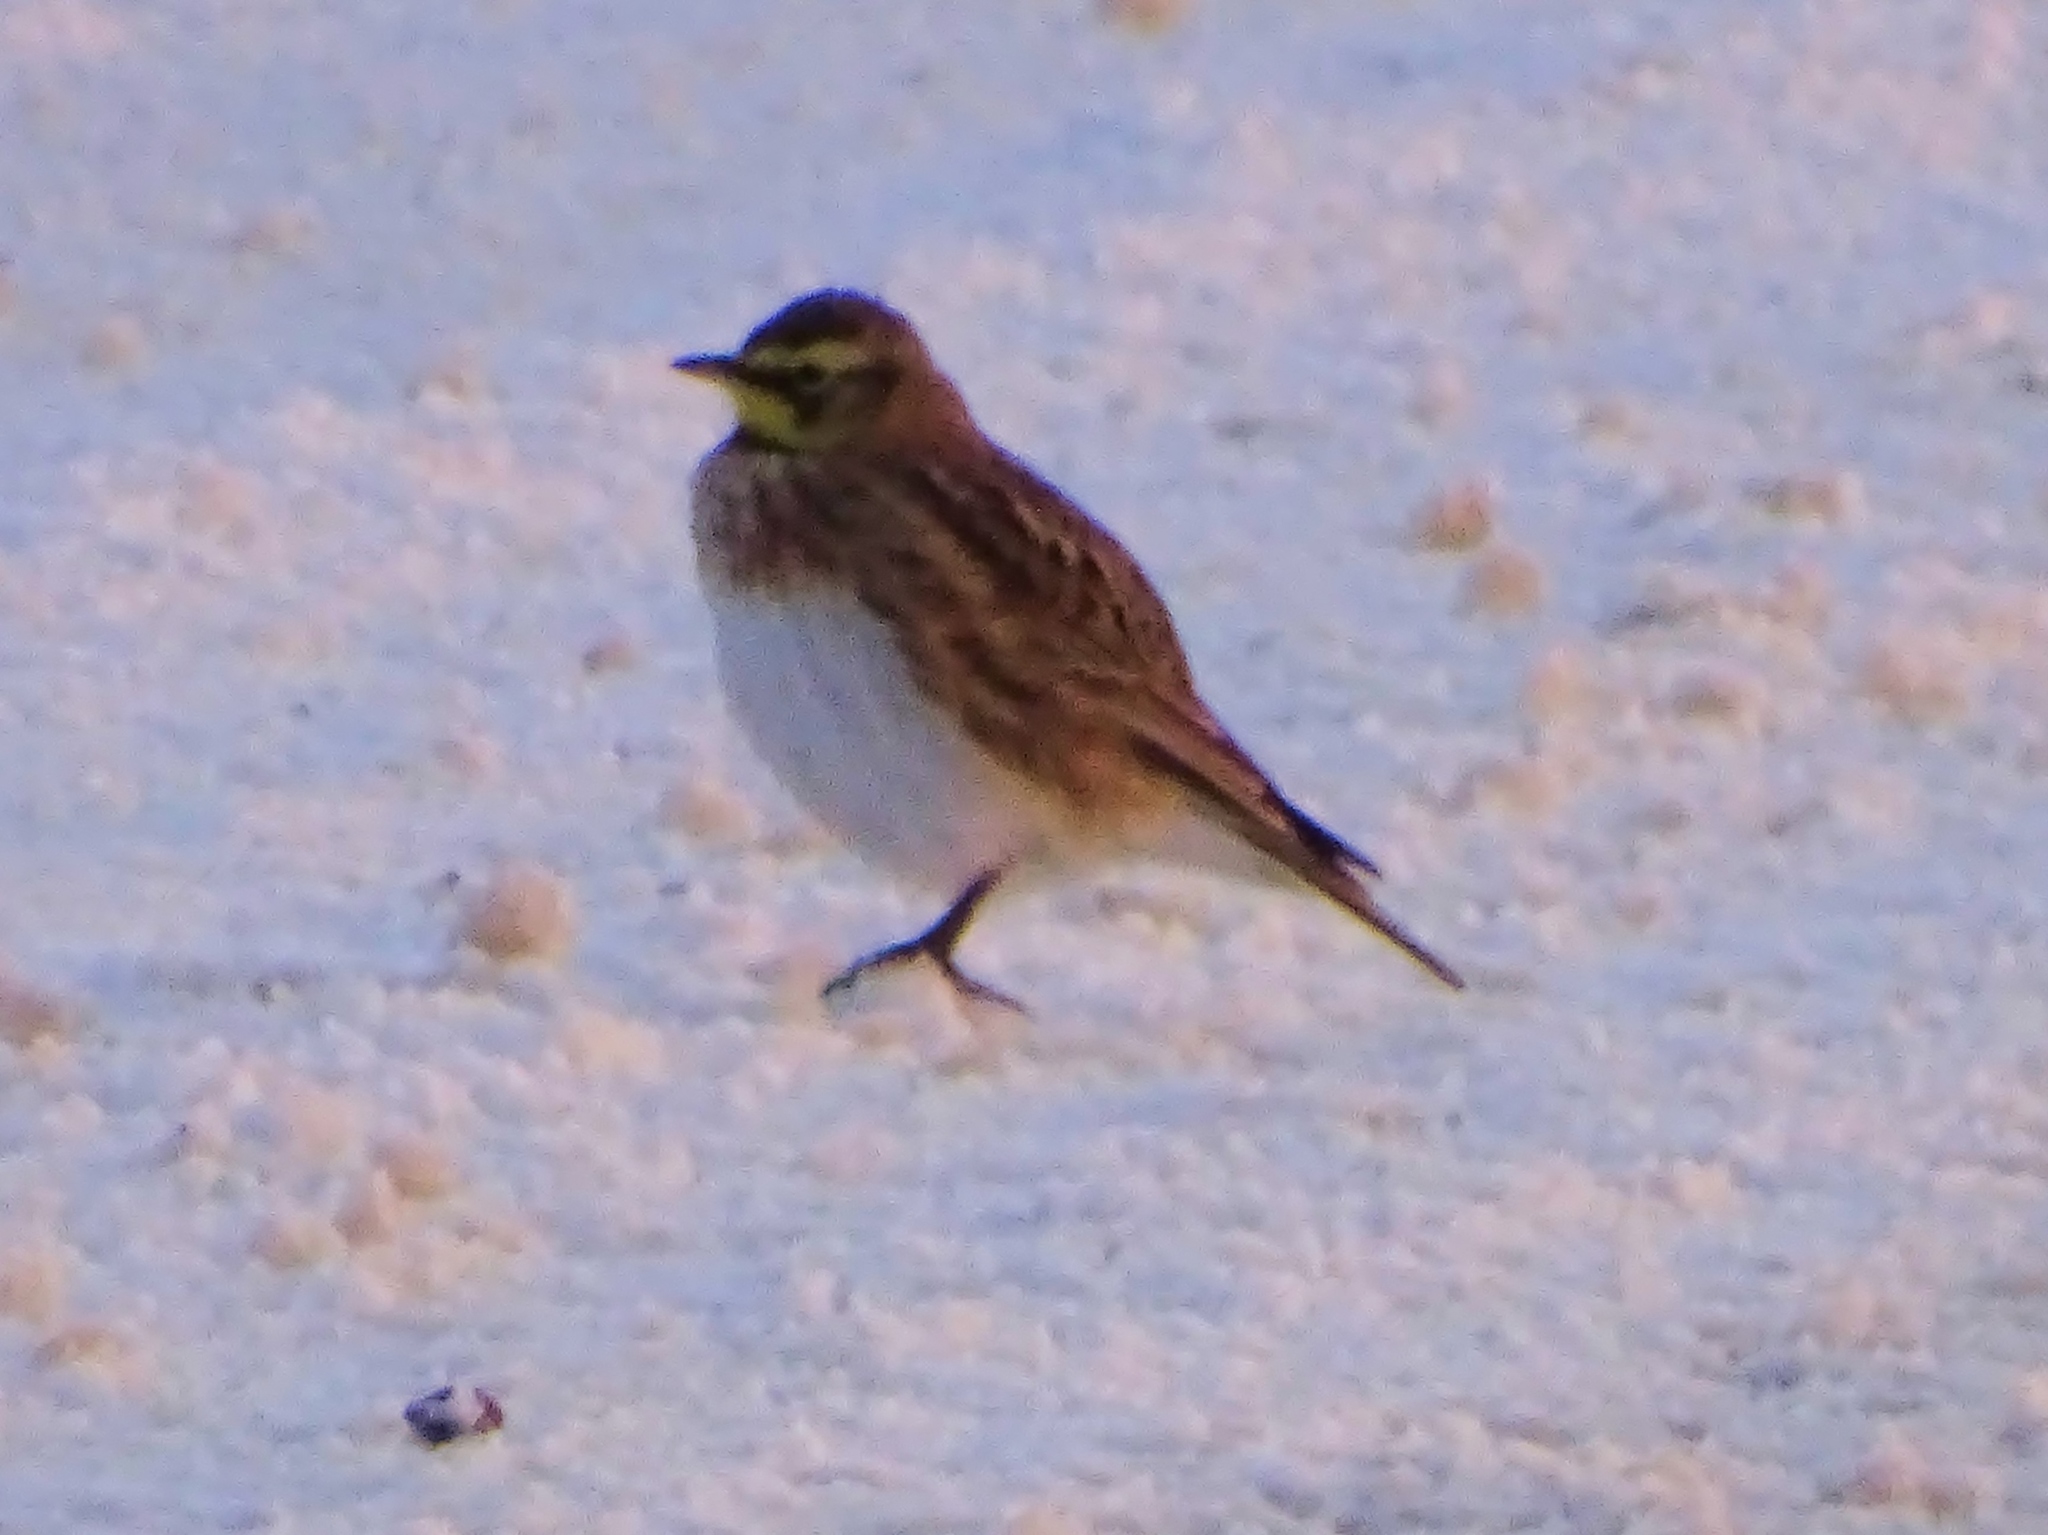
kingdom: Animalia
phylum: Chordata
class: Aves
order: Passeriformes
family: Alaudidae
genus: Eremophila
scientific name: Eremophila alpestris
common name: Horned lark
